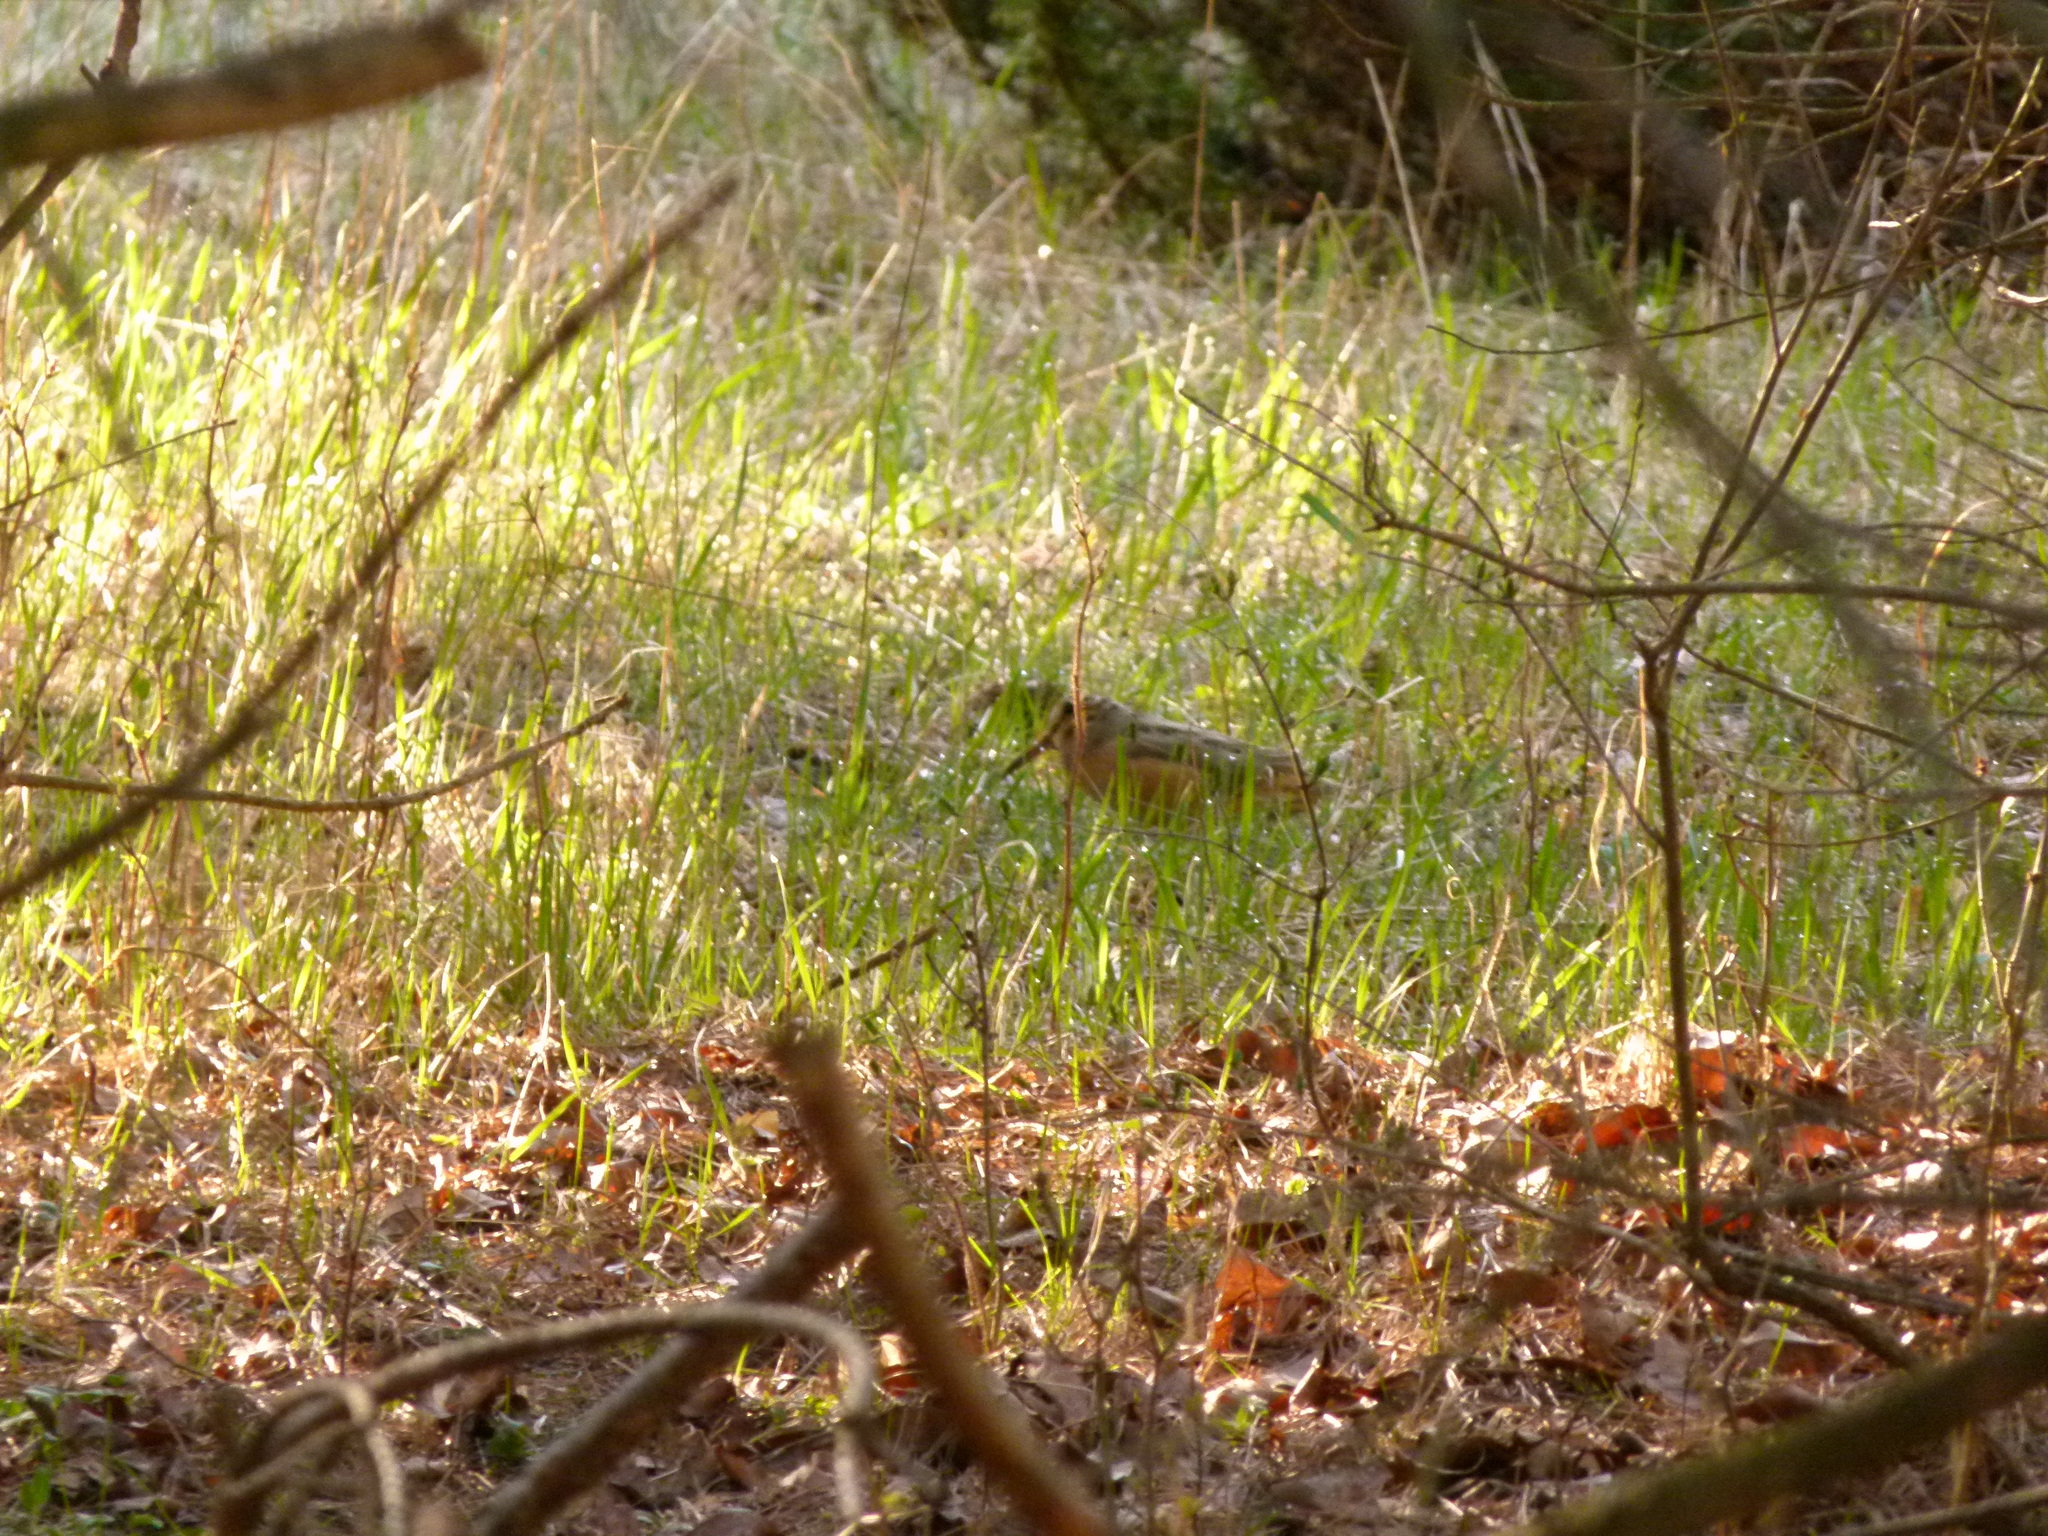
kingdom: Animalia
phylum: Chordata
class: Aves
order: Charadriiformes
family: Scolopacidae
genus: Scolopax
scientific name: Scolopax minor
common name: American woodcock
